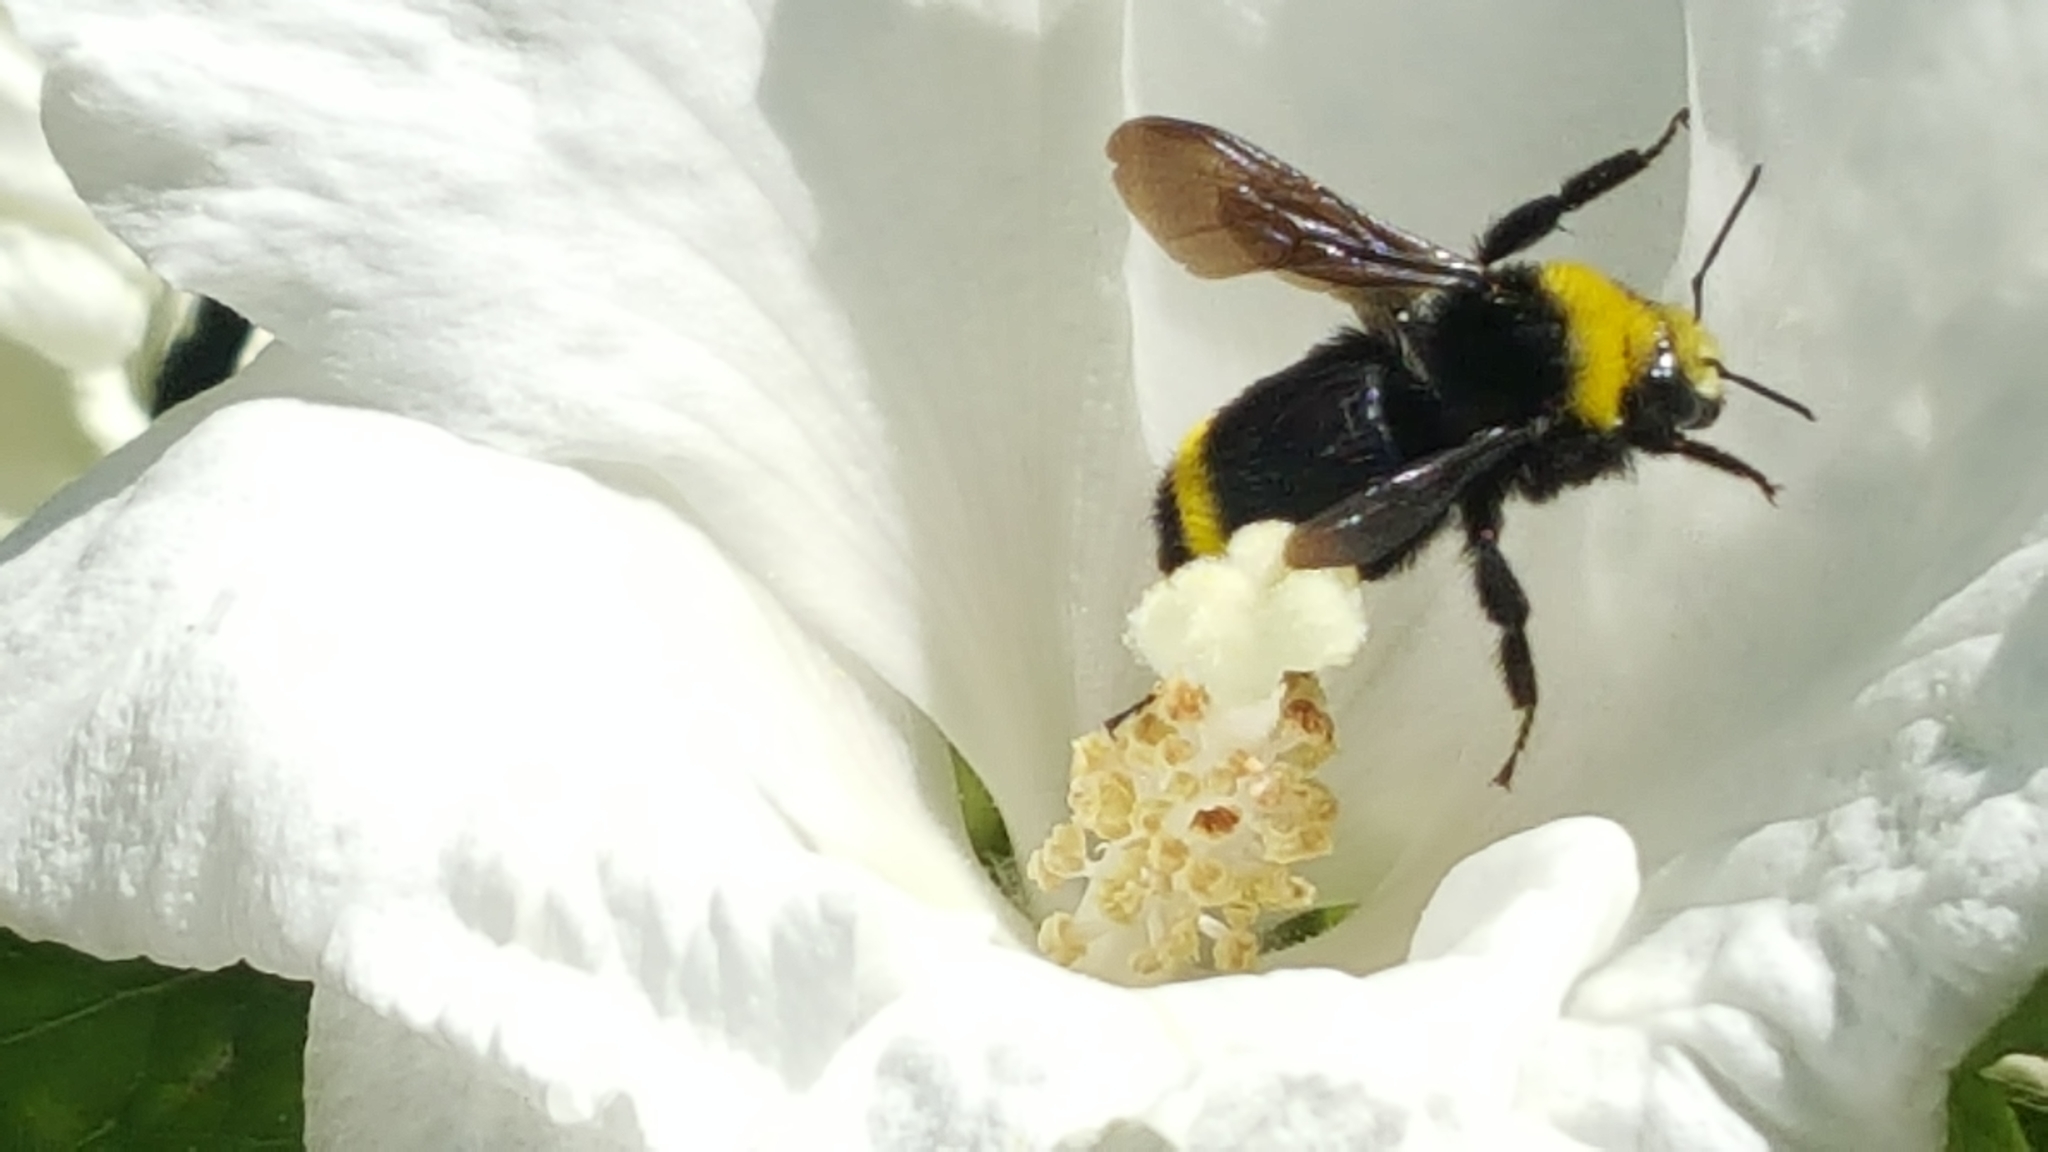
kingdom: Animalia
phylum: Arthropoda
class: Insecta
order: Hymenoptera
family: Apidae
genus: Bombus
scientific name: Bombus vosnesenskii
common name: Vosnesensky bumble bee
